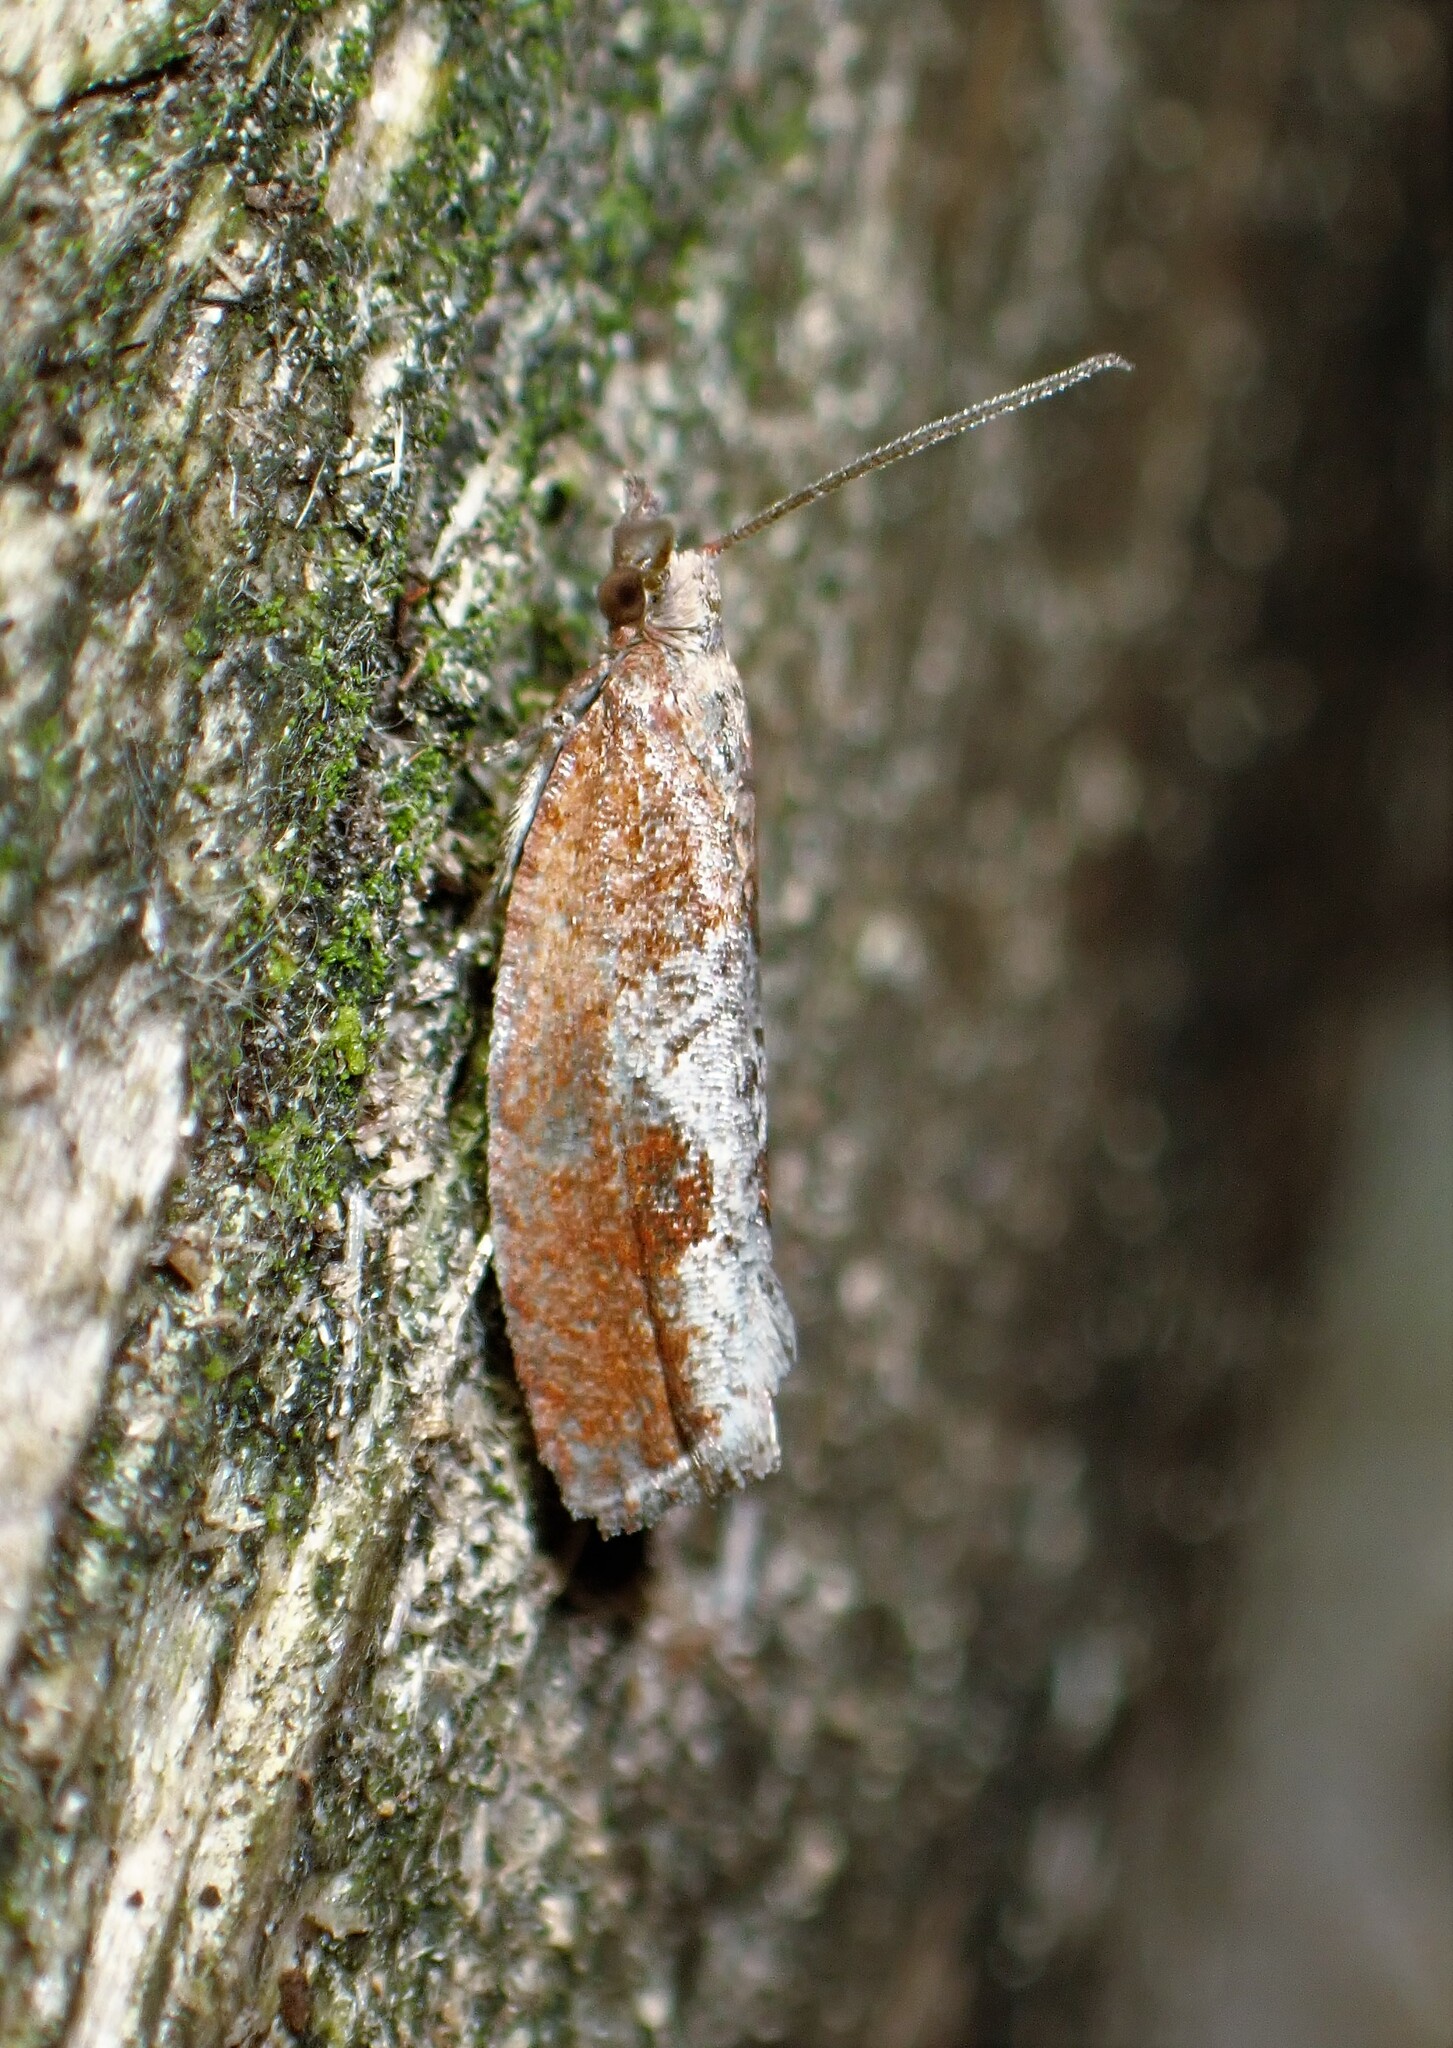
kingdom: Animalia
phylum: Arthropoda
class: Insecta
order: Lepidoptera
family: Tortricidae
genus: Epinotia
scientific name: Epinotia septemberana
